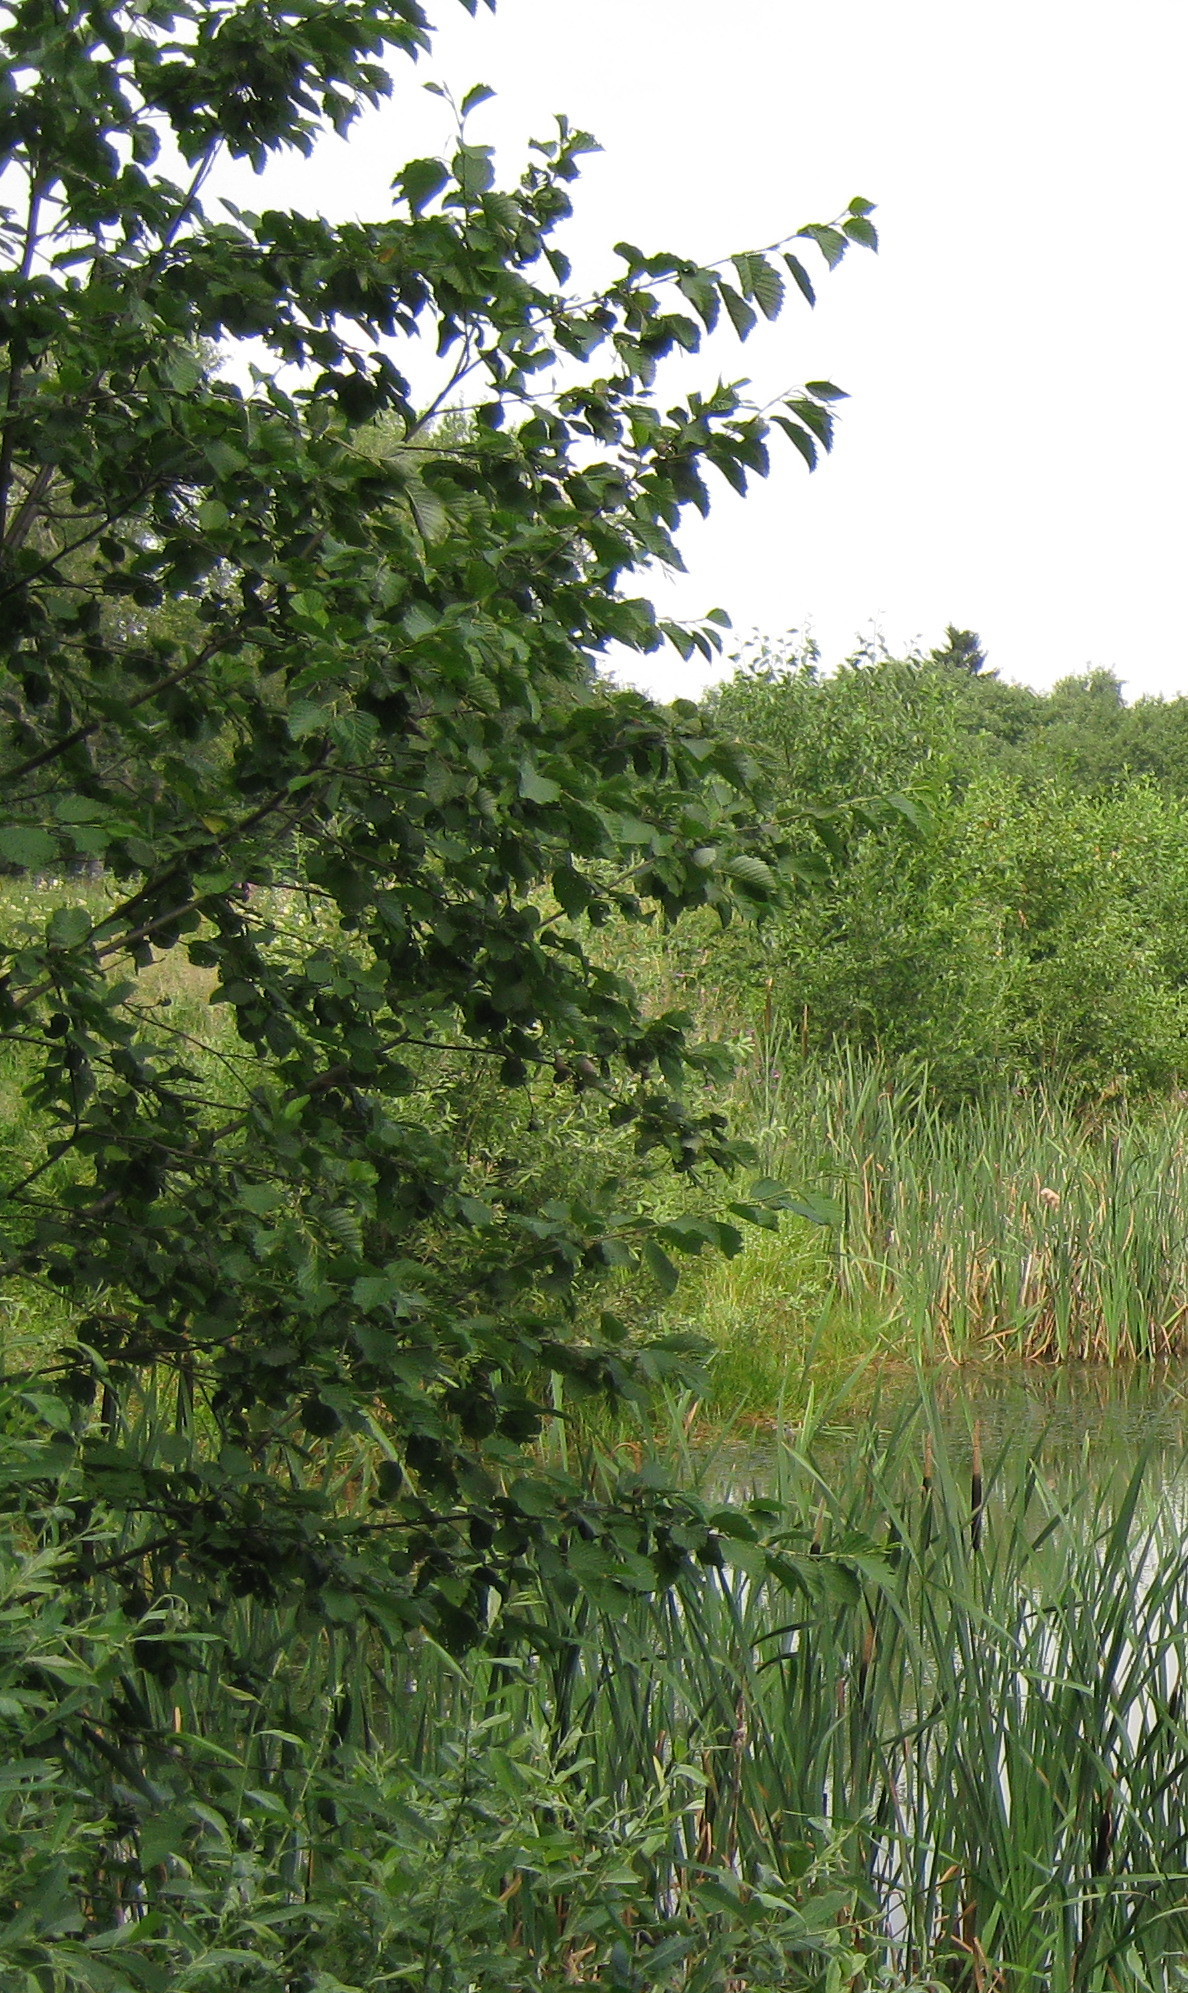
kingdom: Plantae
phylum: Tracheophyta
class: Magnoliopsida
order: Fagales
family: Betulaceae
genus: Alnus
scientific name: Alnus incana
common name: Grey alder
